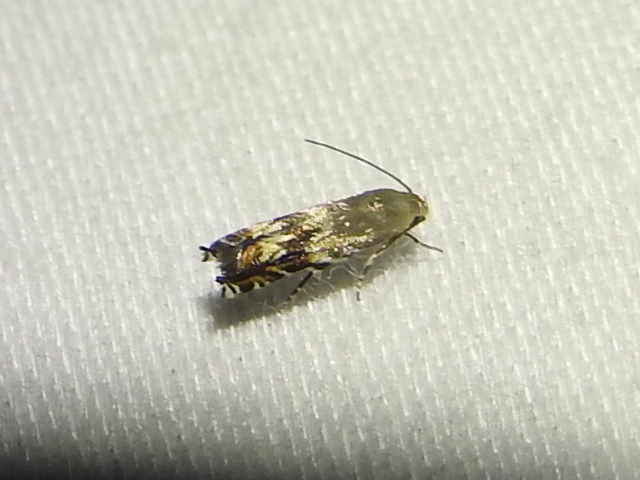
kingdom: Animalia
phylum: Arthropoda
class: Insecta
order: Lepidoptera
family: Gelechiidae
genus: Calliprora
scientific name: Calliprora sexstrigella
